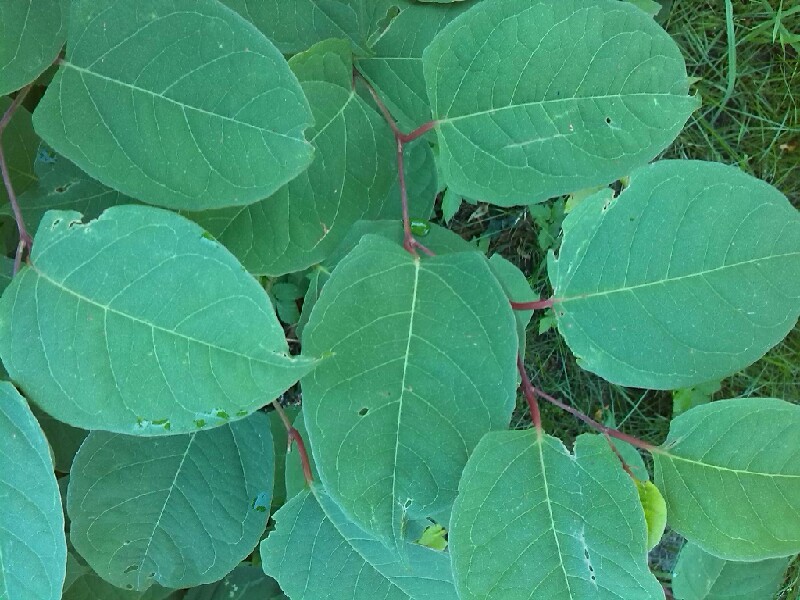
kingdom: Plantae
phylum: Tracheophyta
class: Magnoliopsida
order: Caryophyllales
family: Polygonaceae
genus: Reynoutria
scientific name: Reynoutria japonica
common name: Japanese knotweed
